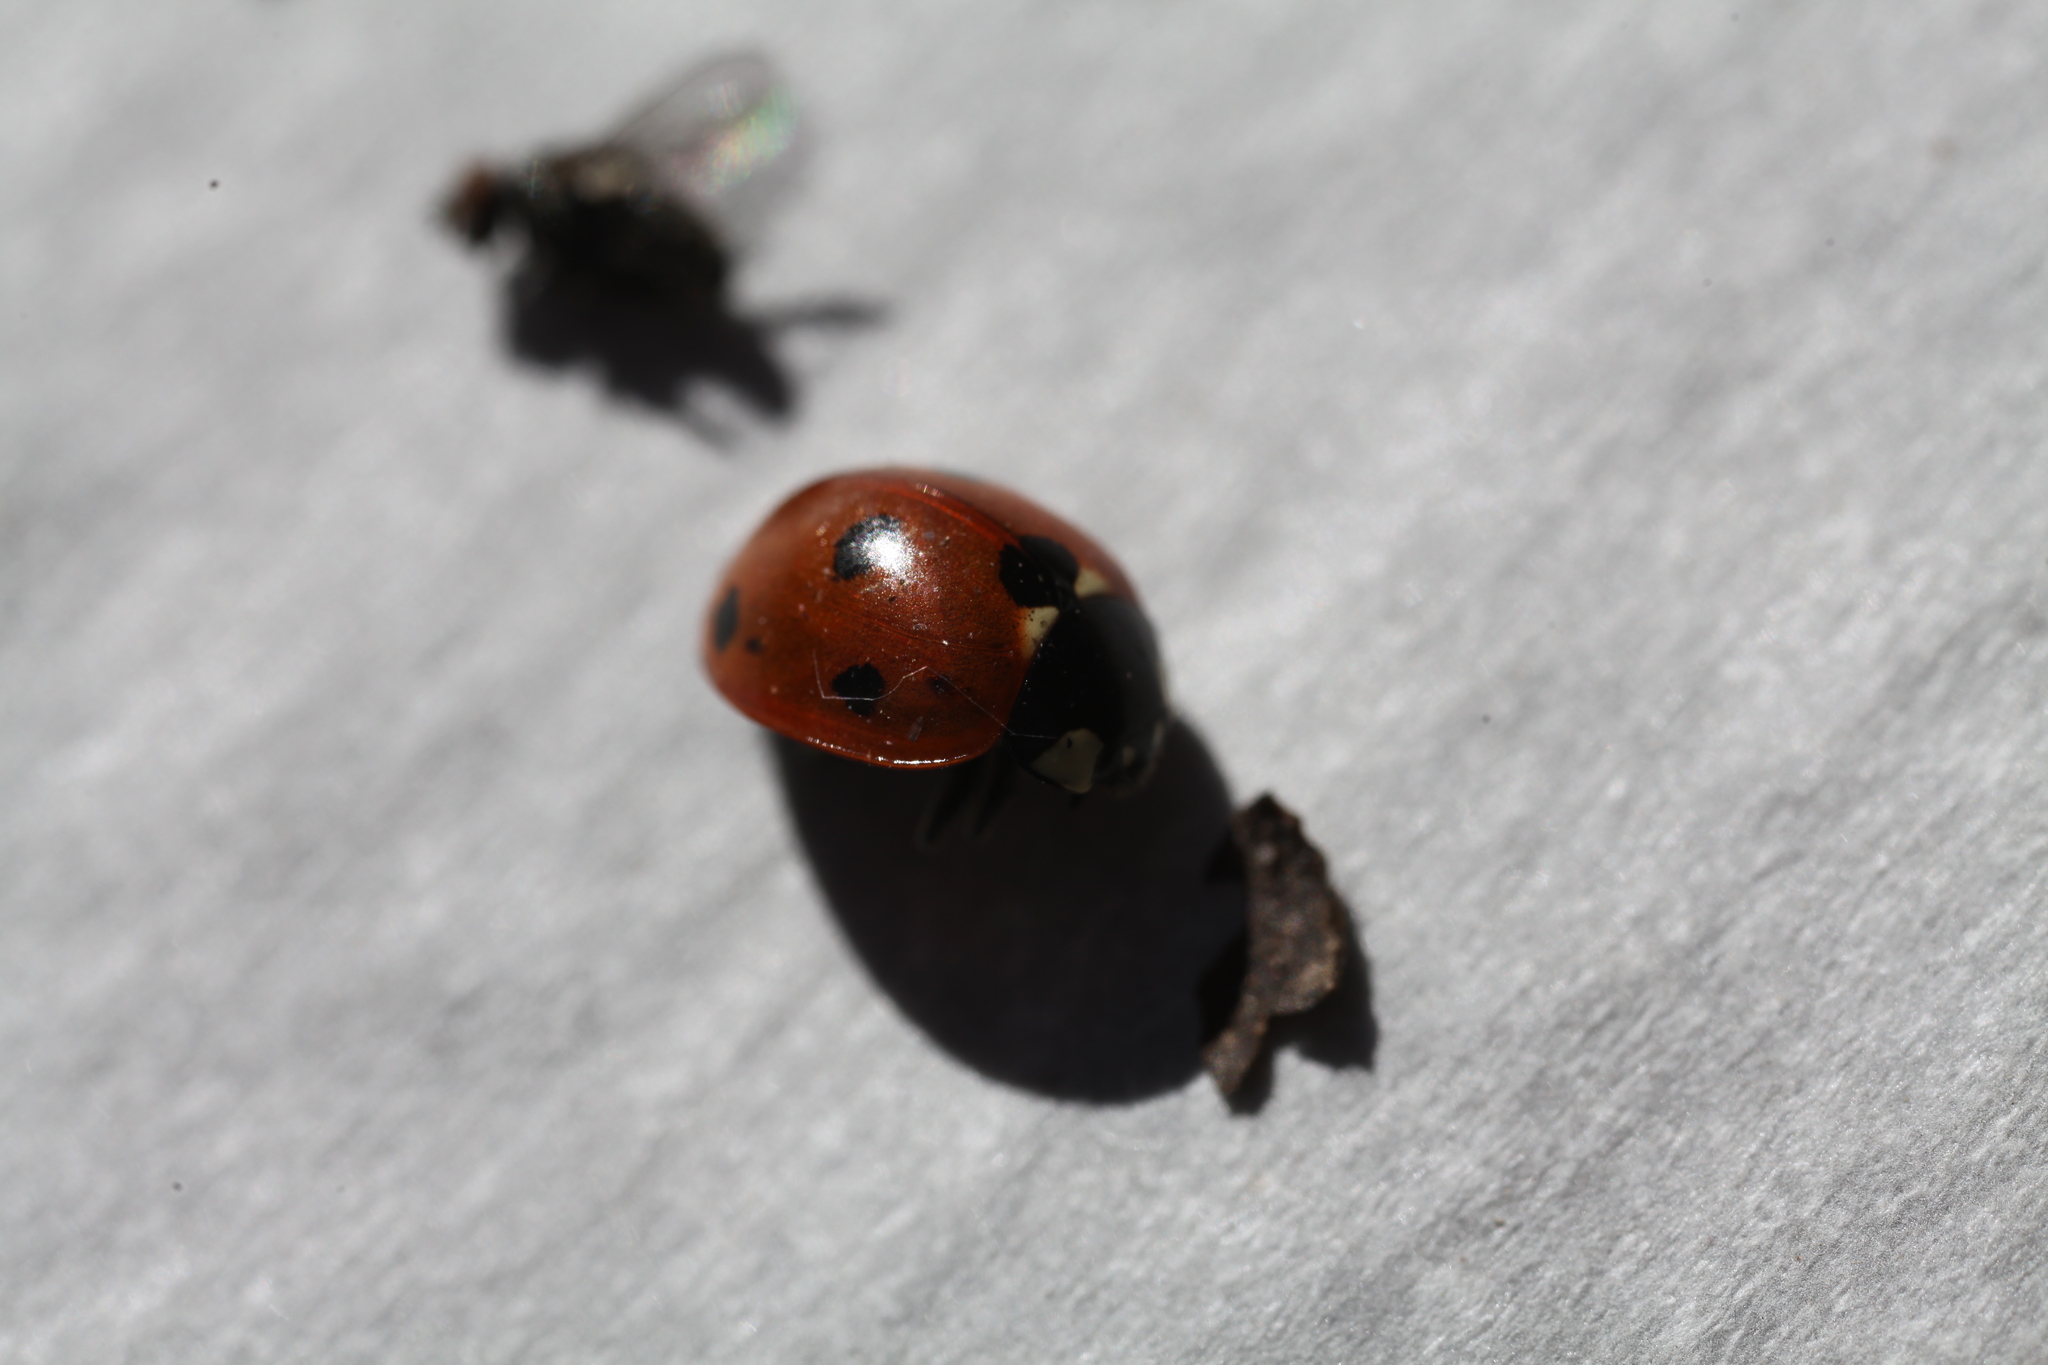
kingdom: Animalia
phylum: Arthropoda
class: Insecta
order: Coleoptera
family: Coccinellidae
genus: Coccinella
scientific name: Coccinella septempunctata
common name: Sevenspotted lady beetle
